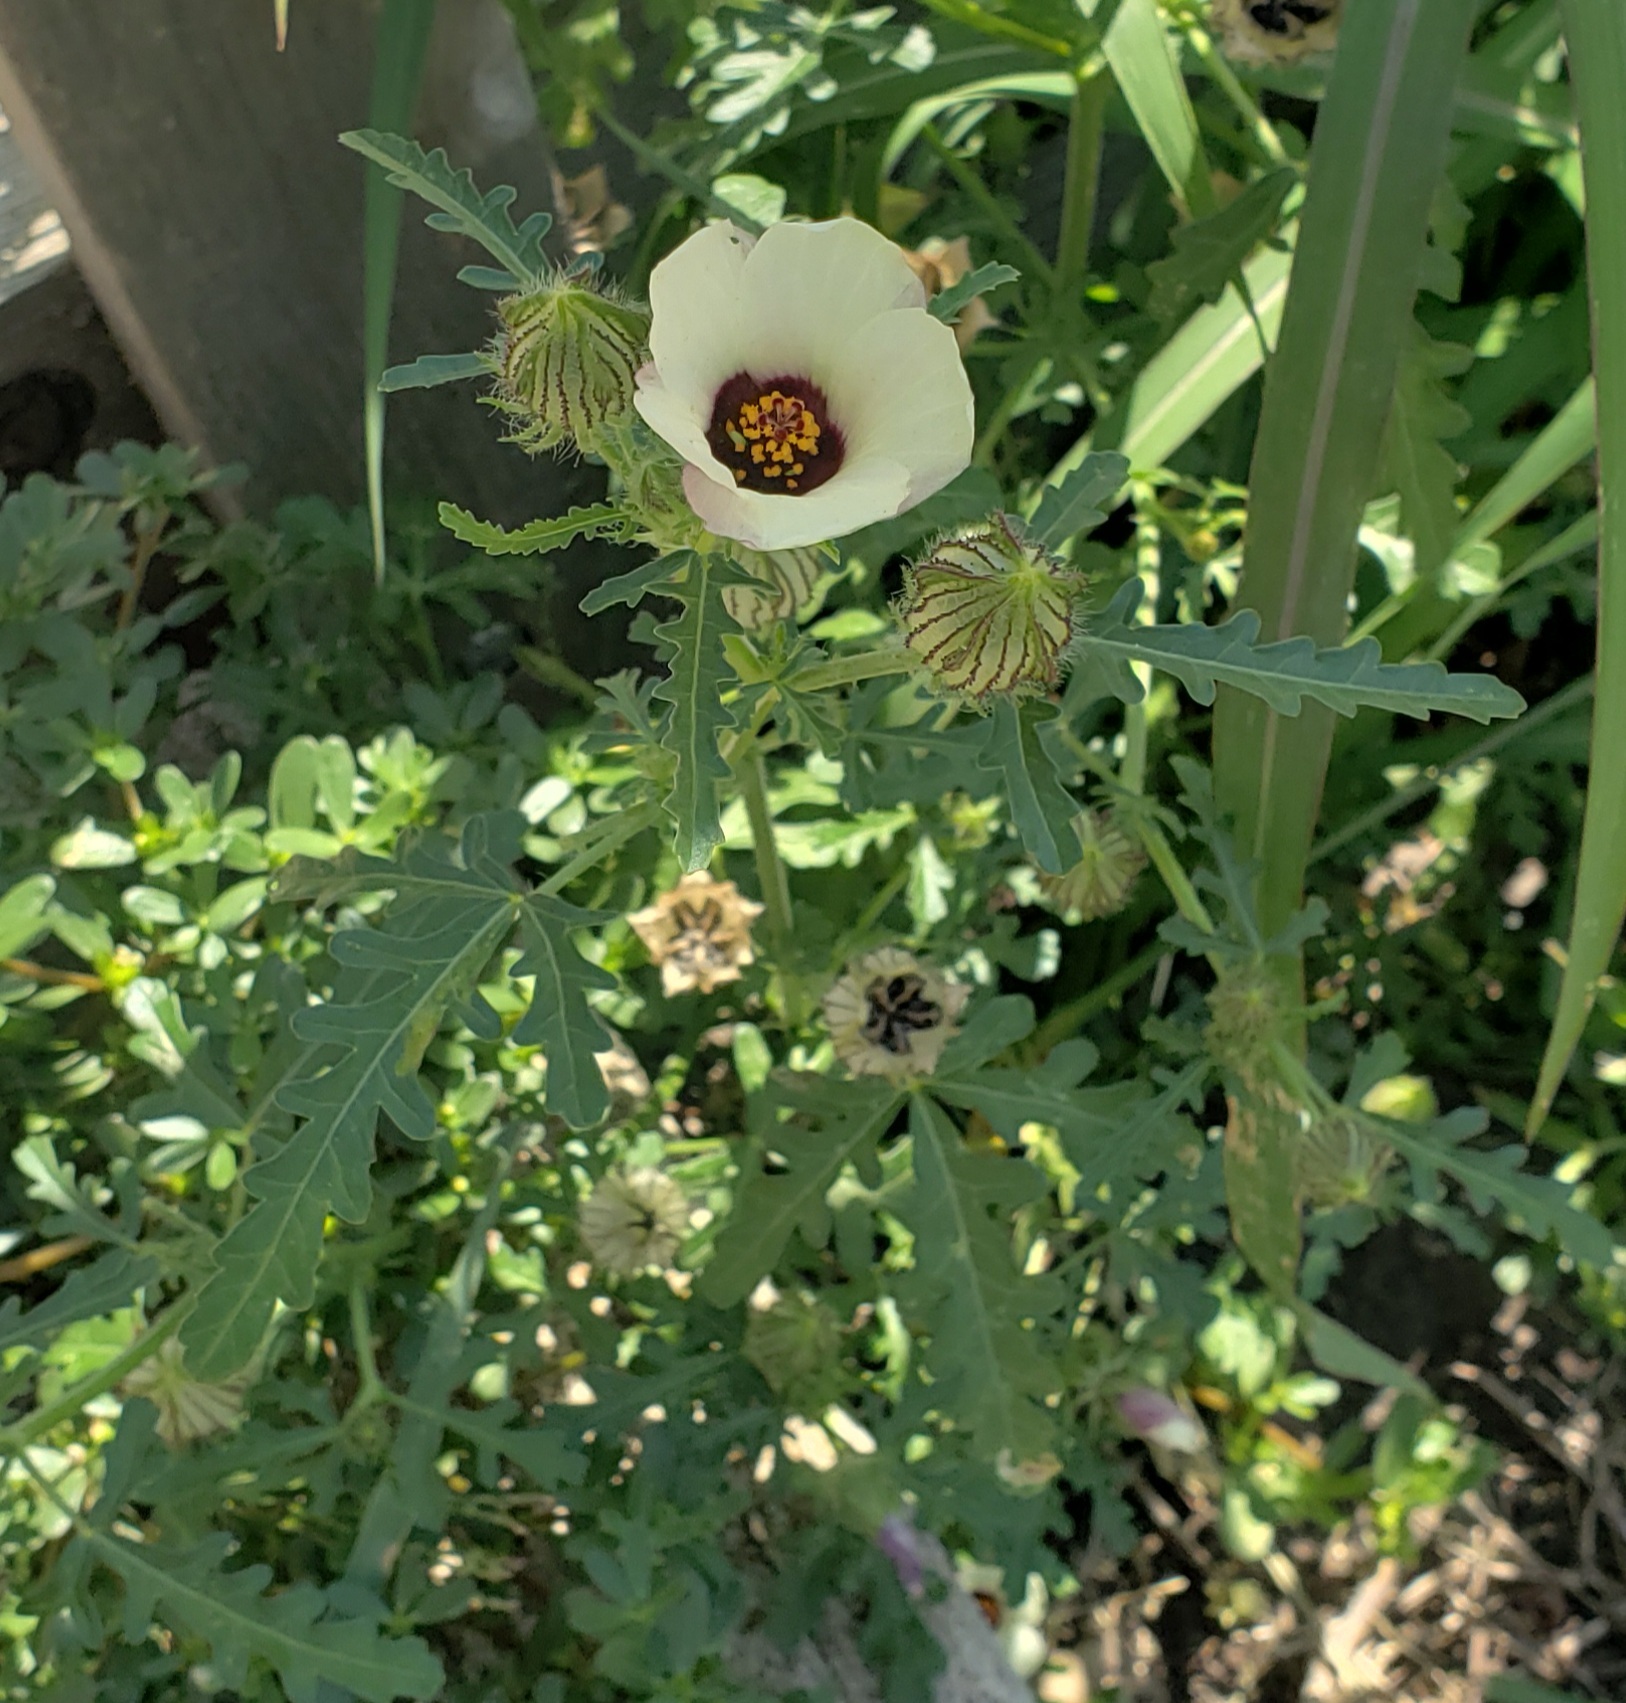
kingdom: Plantae
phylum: Tracheophyta
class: Magnoliopsida
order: Malvales
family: Malvaceae
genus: Hibiscus
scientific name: Hibiscus trionum
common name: Bladder ketmia
